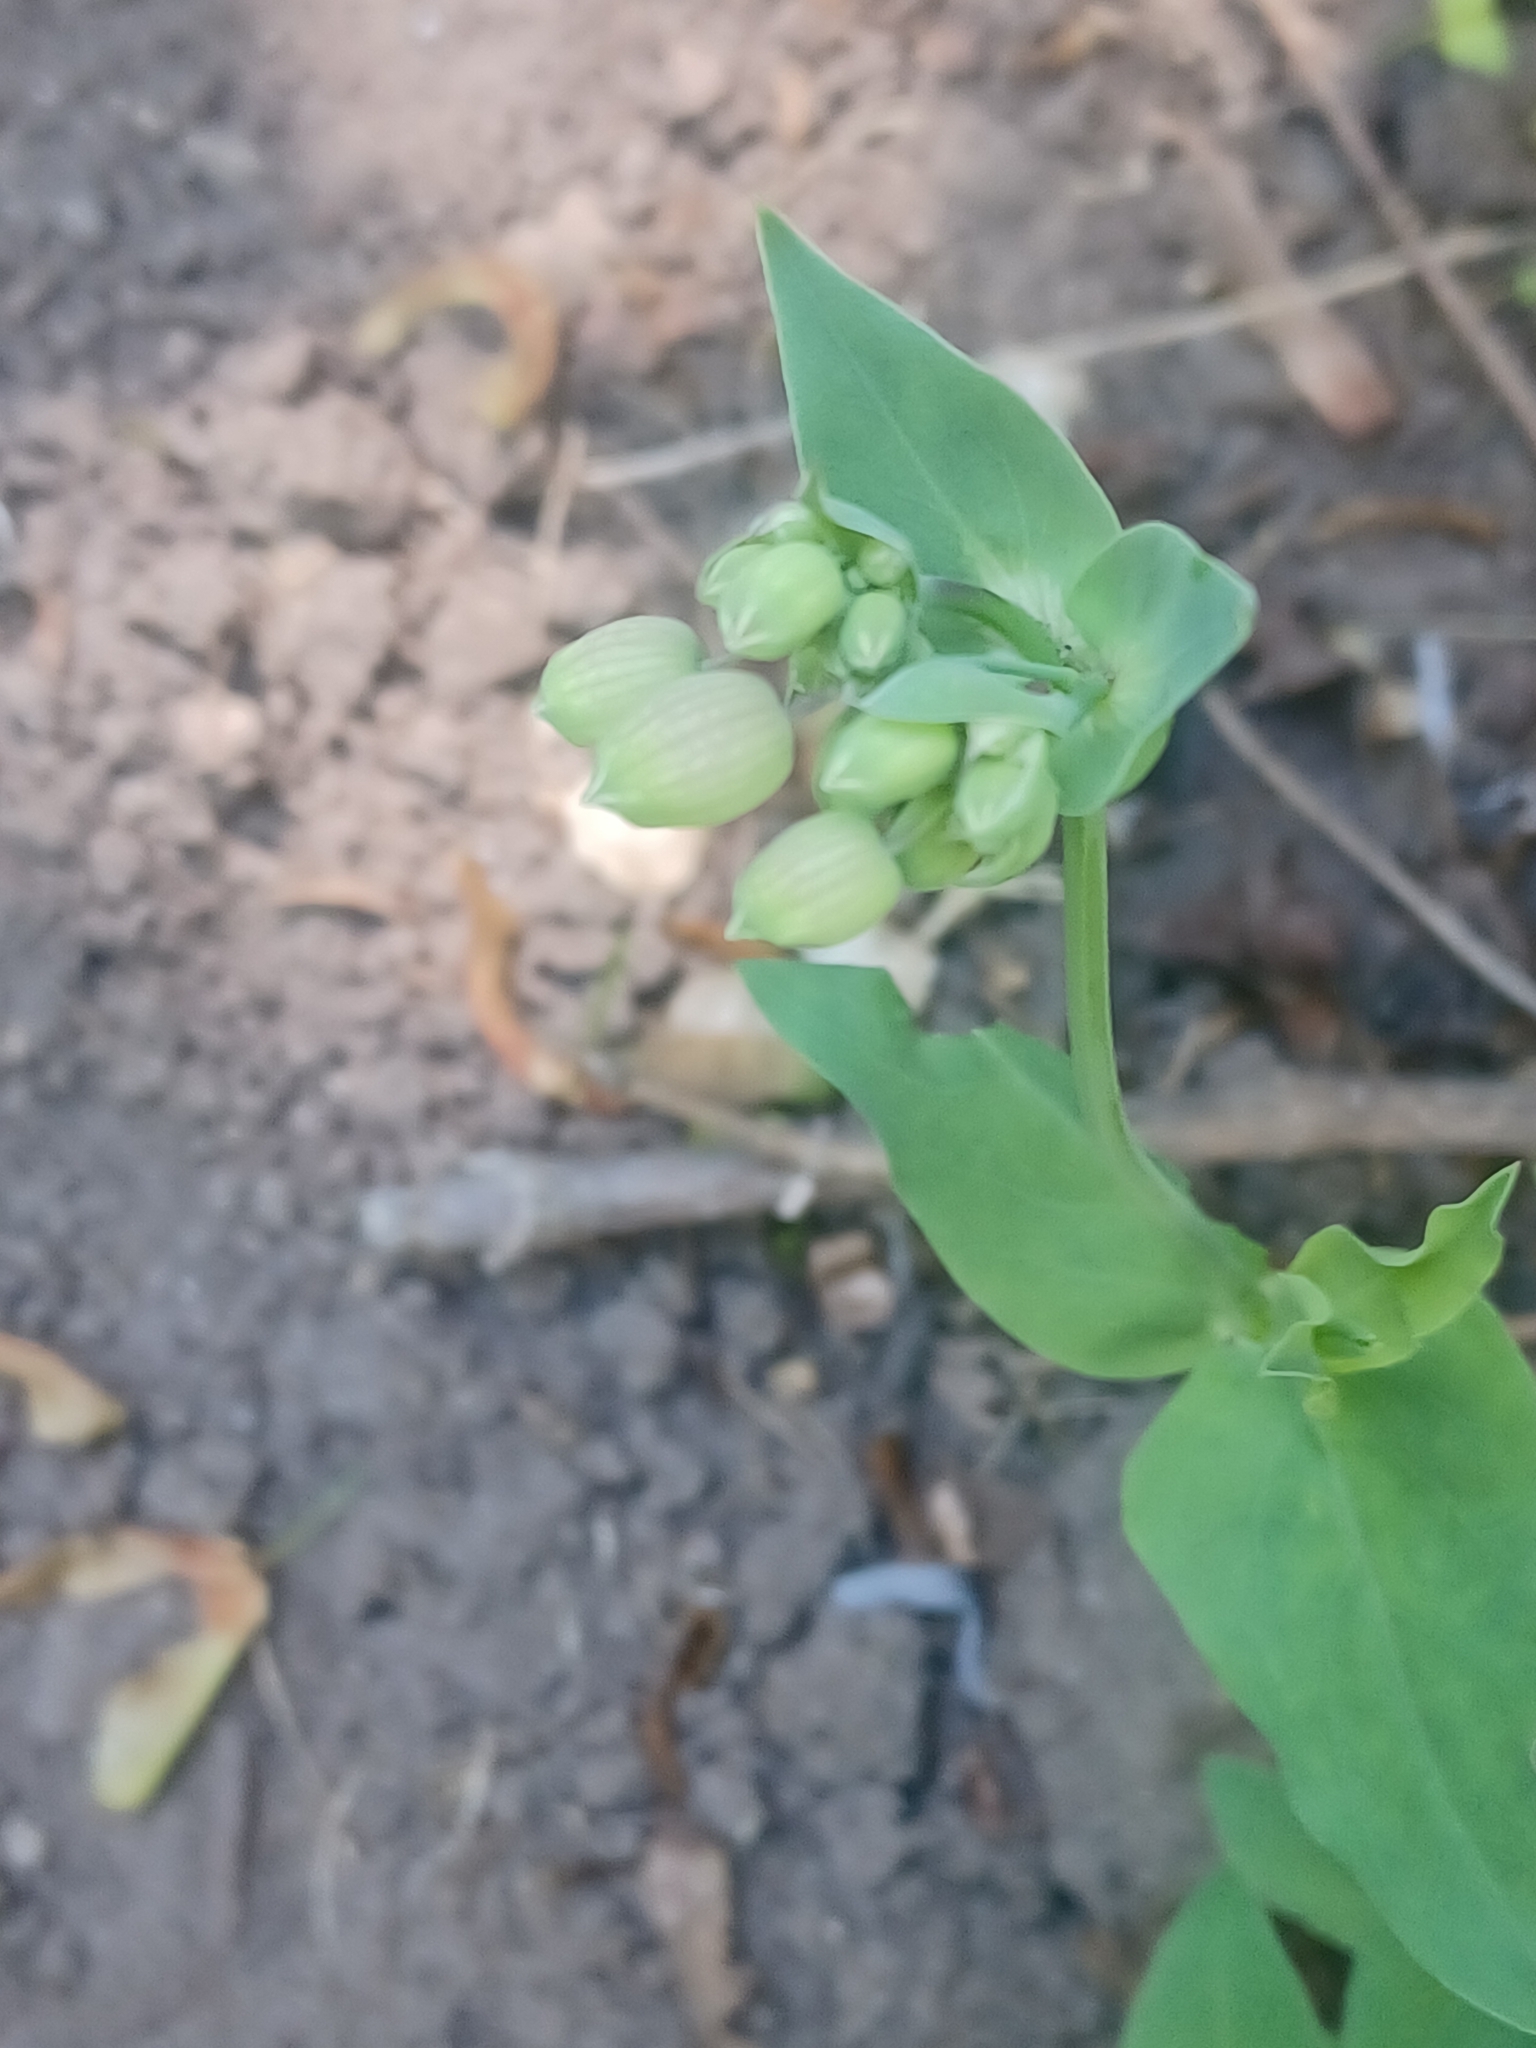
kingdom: Plantae
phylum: Tracheophyta
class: Magnoliopsida
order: Caryophyllales
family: Caryophyllaceae
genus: Silene
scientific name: Silene vulgaris
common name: Bladder campion
